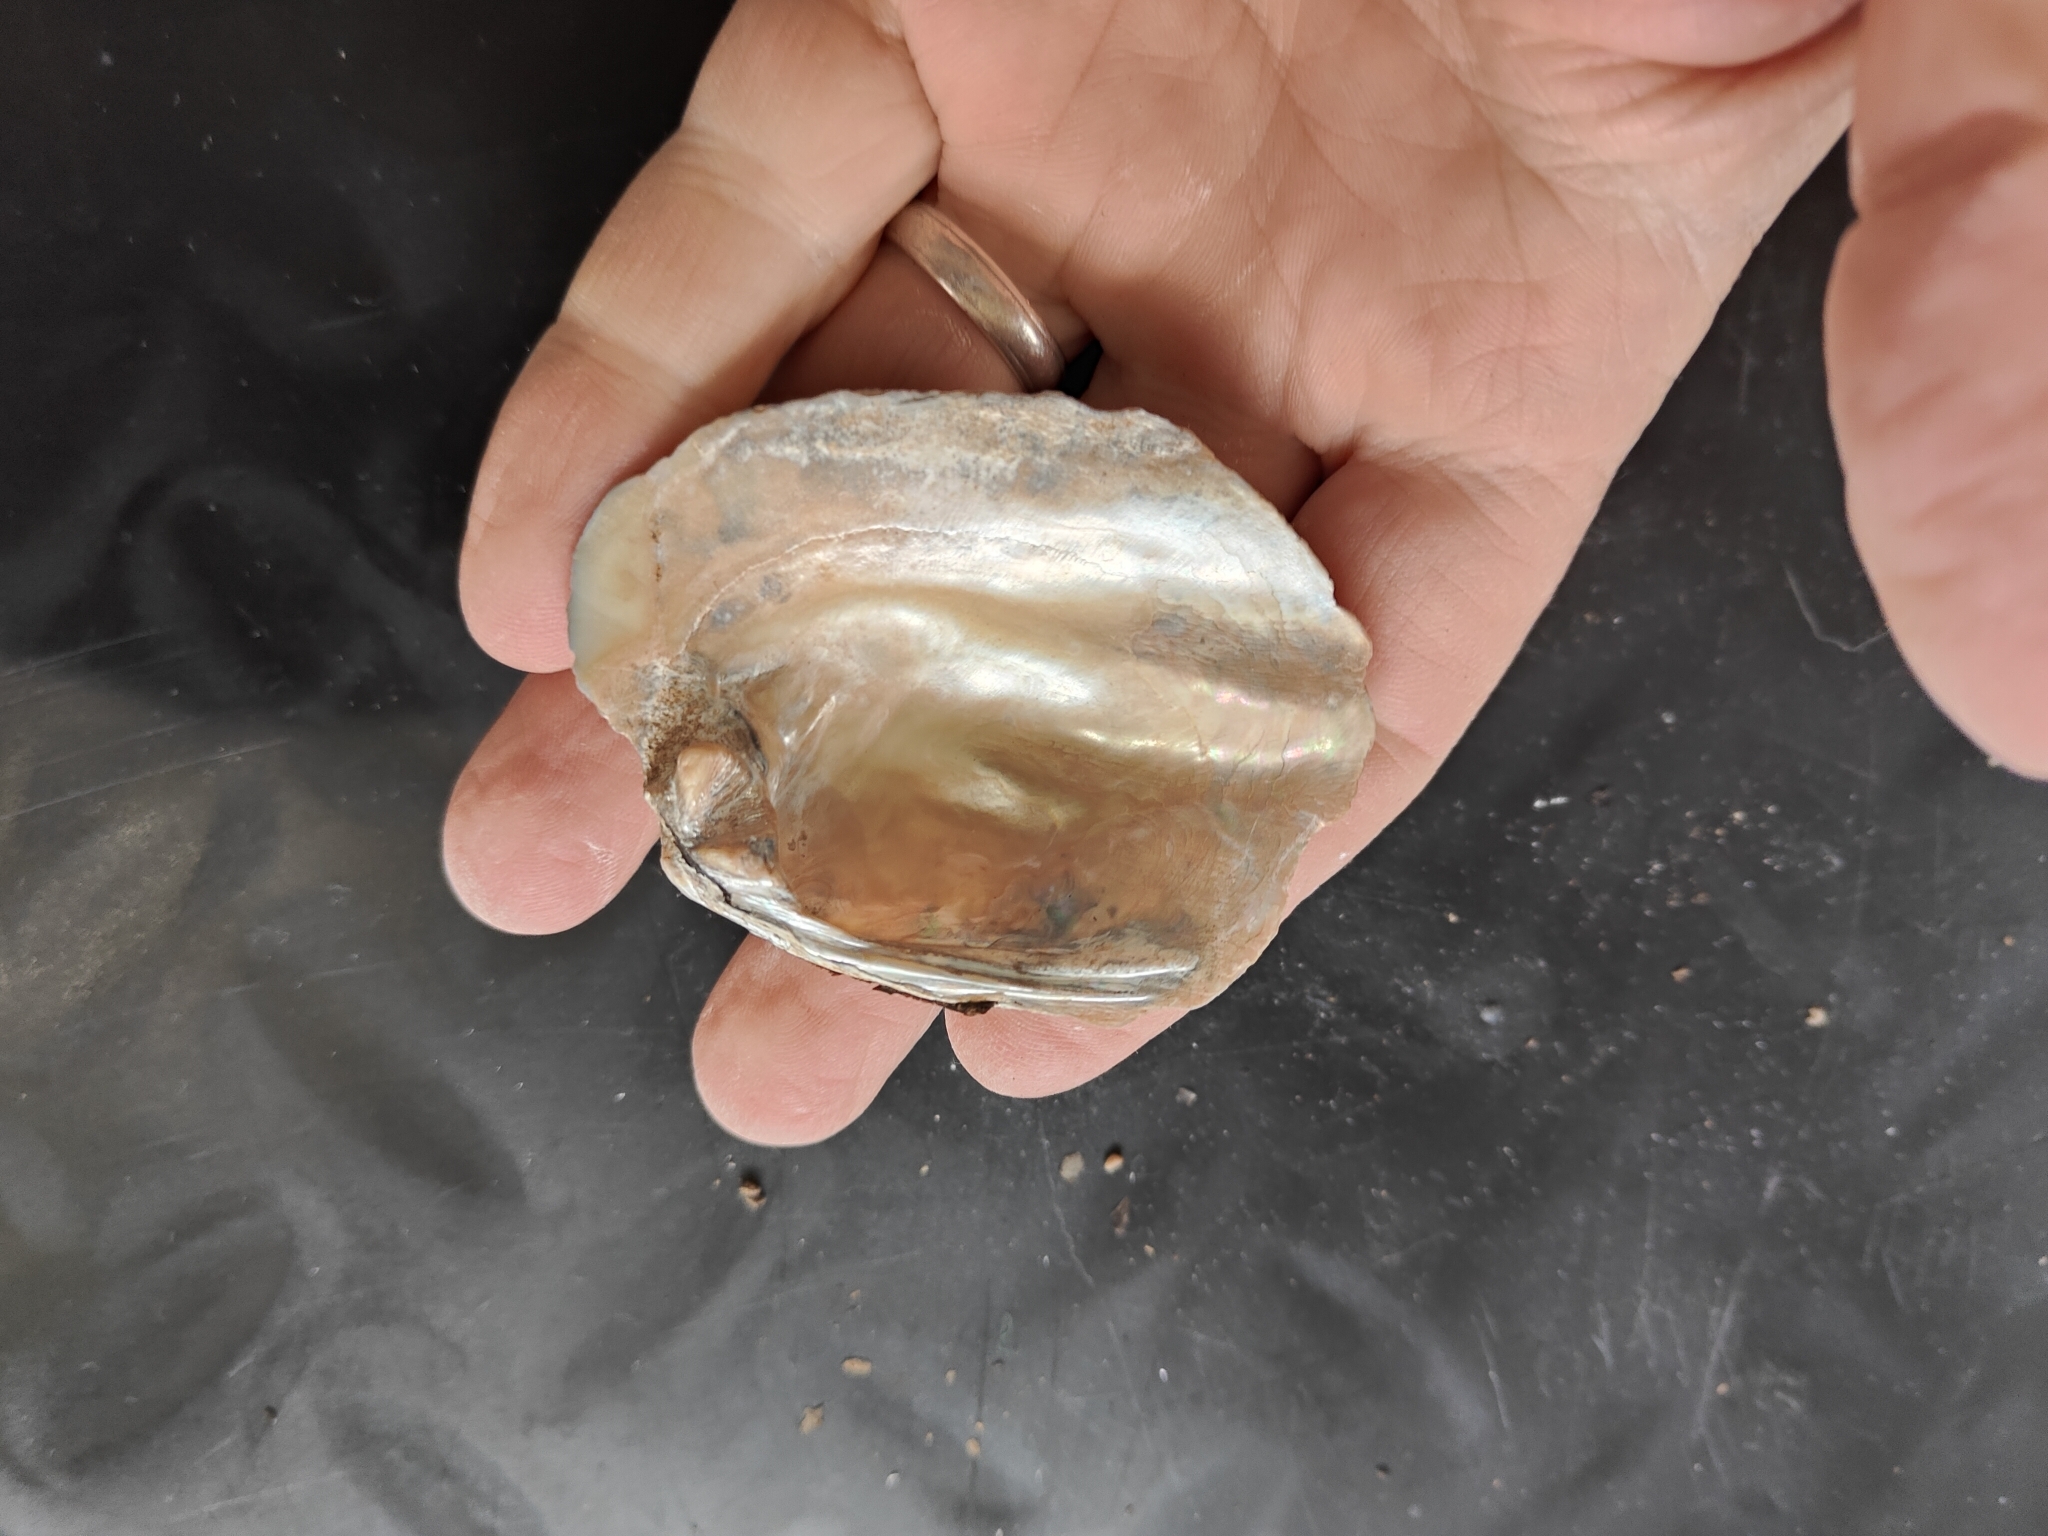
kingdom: Animalia
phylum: Mollusca
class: Bivalvia
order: Unionida
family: Unionidae
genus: Amblema
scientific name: Amblema plicata
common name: Threeridge
